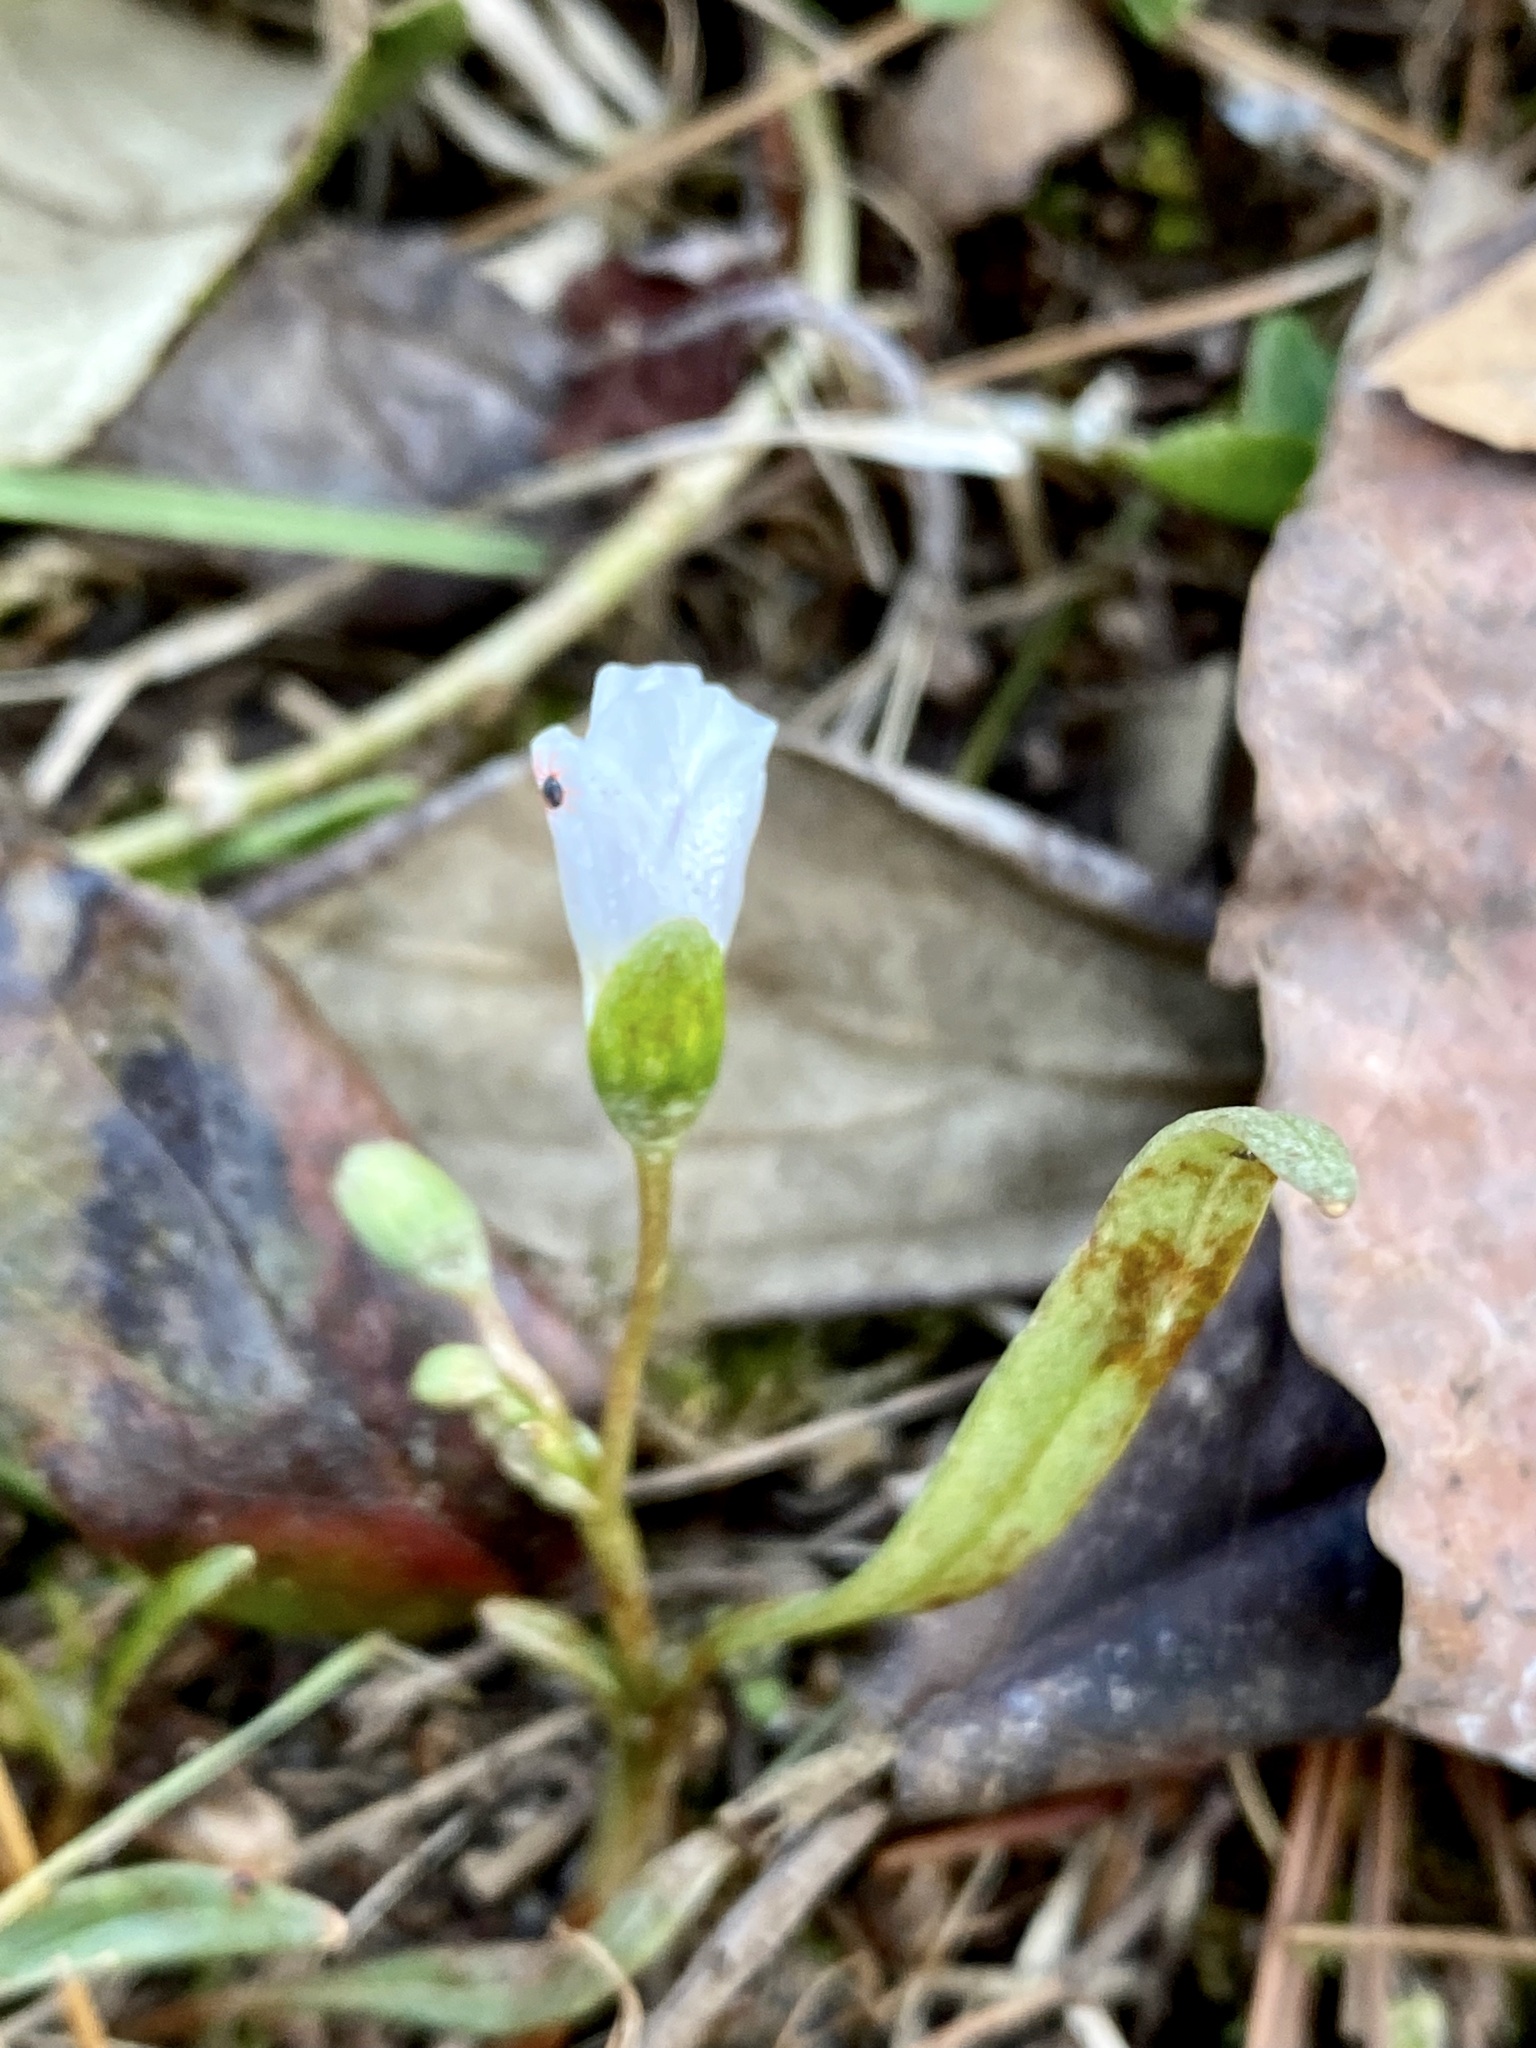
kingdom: Plantae
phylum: Tracheophyta
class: Magnoliopsida
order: Caryophyllales
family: Montiaceae
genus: Claytonia
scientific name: Claytonia virginica
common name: Virginia springbeauty
